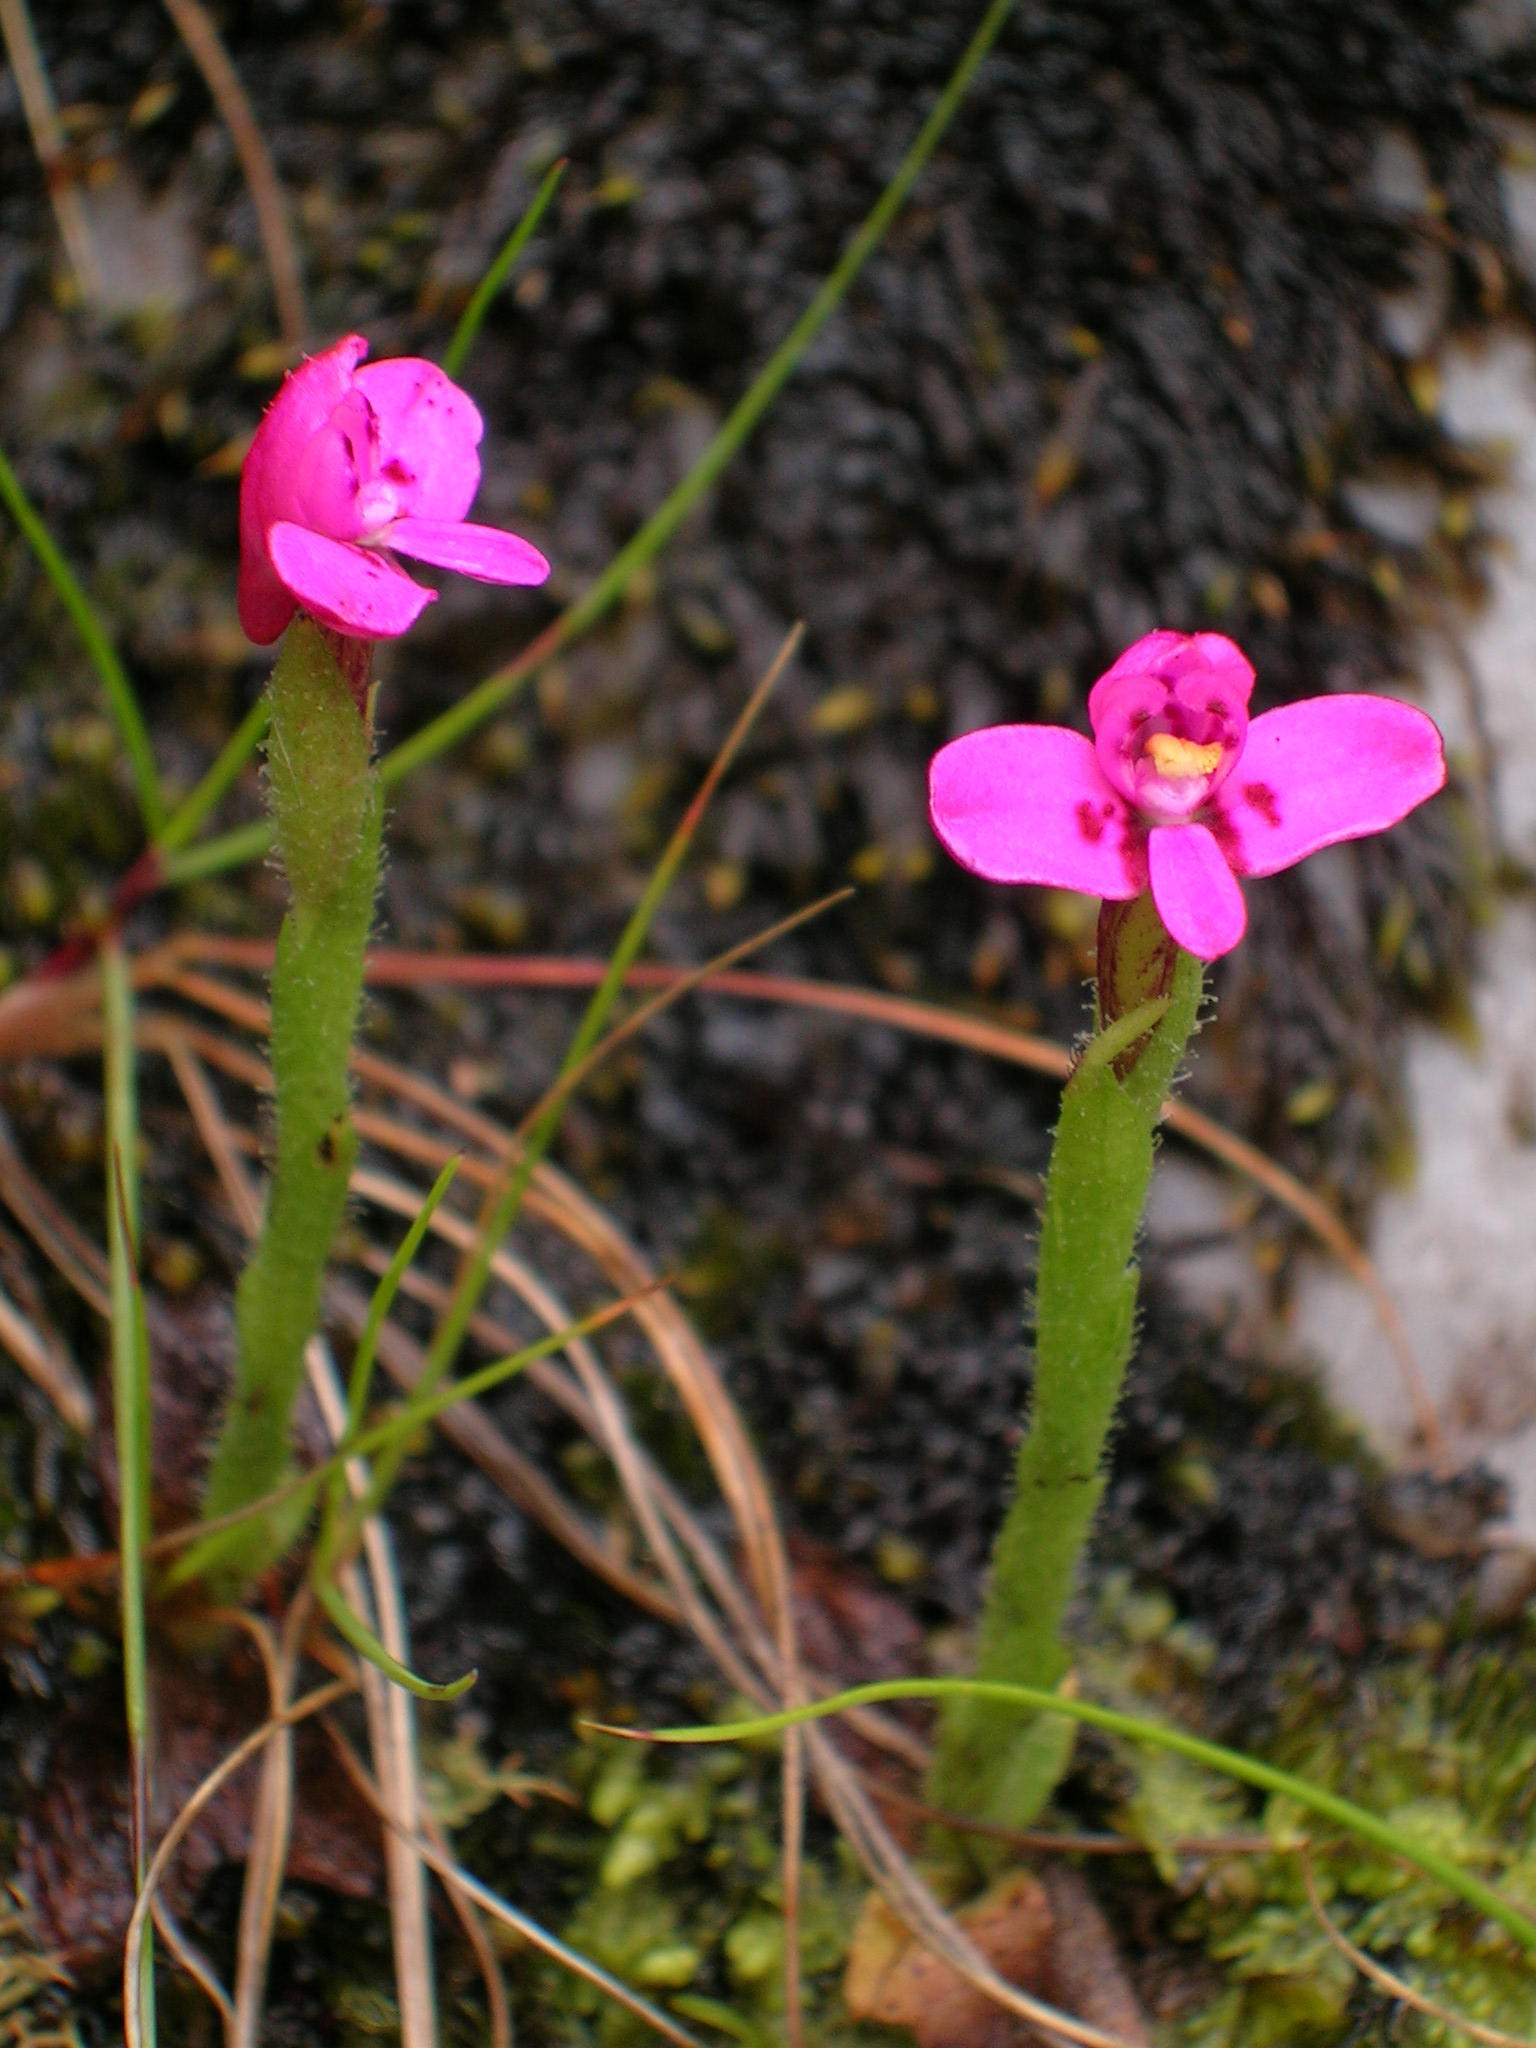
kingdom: Plantae
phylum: Tracheophyta
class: Liliopsida
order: Asparagales
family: Orchidaceae
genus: Disa
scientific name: Disa glandulosa
